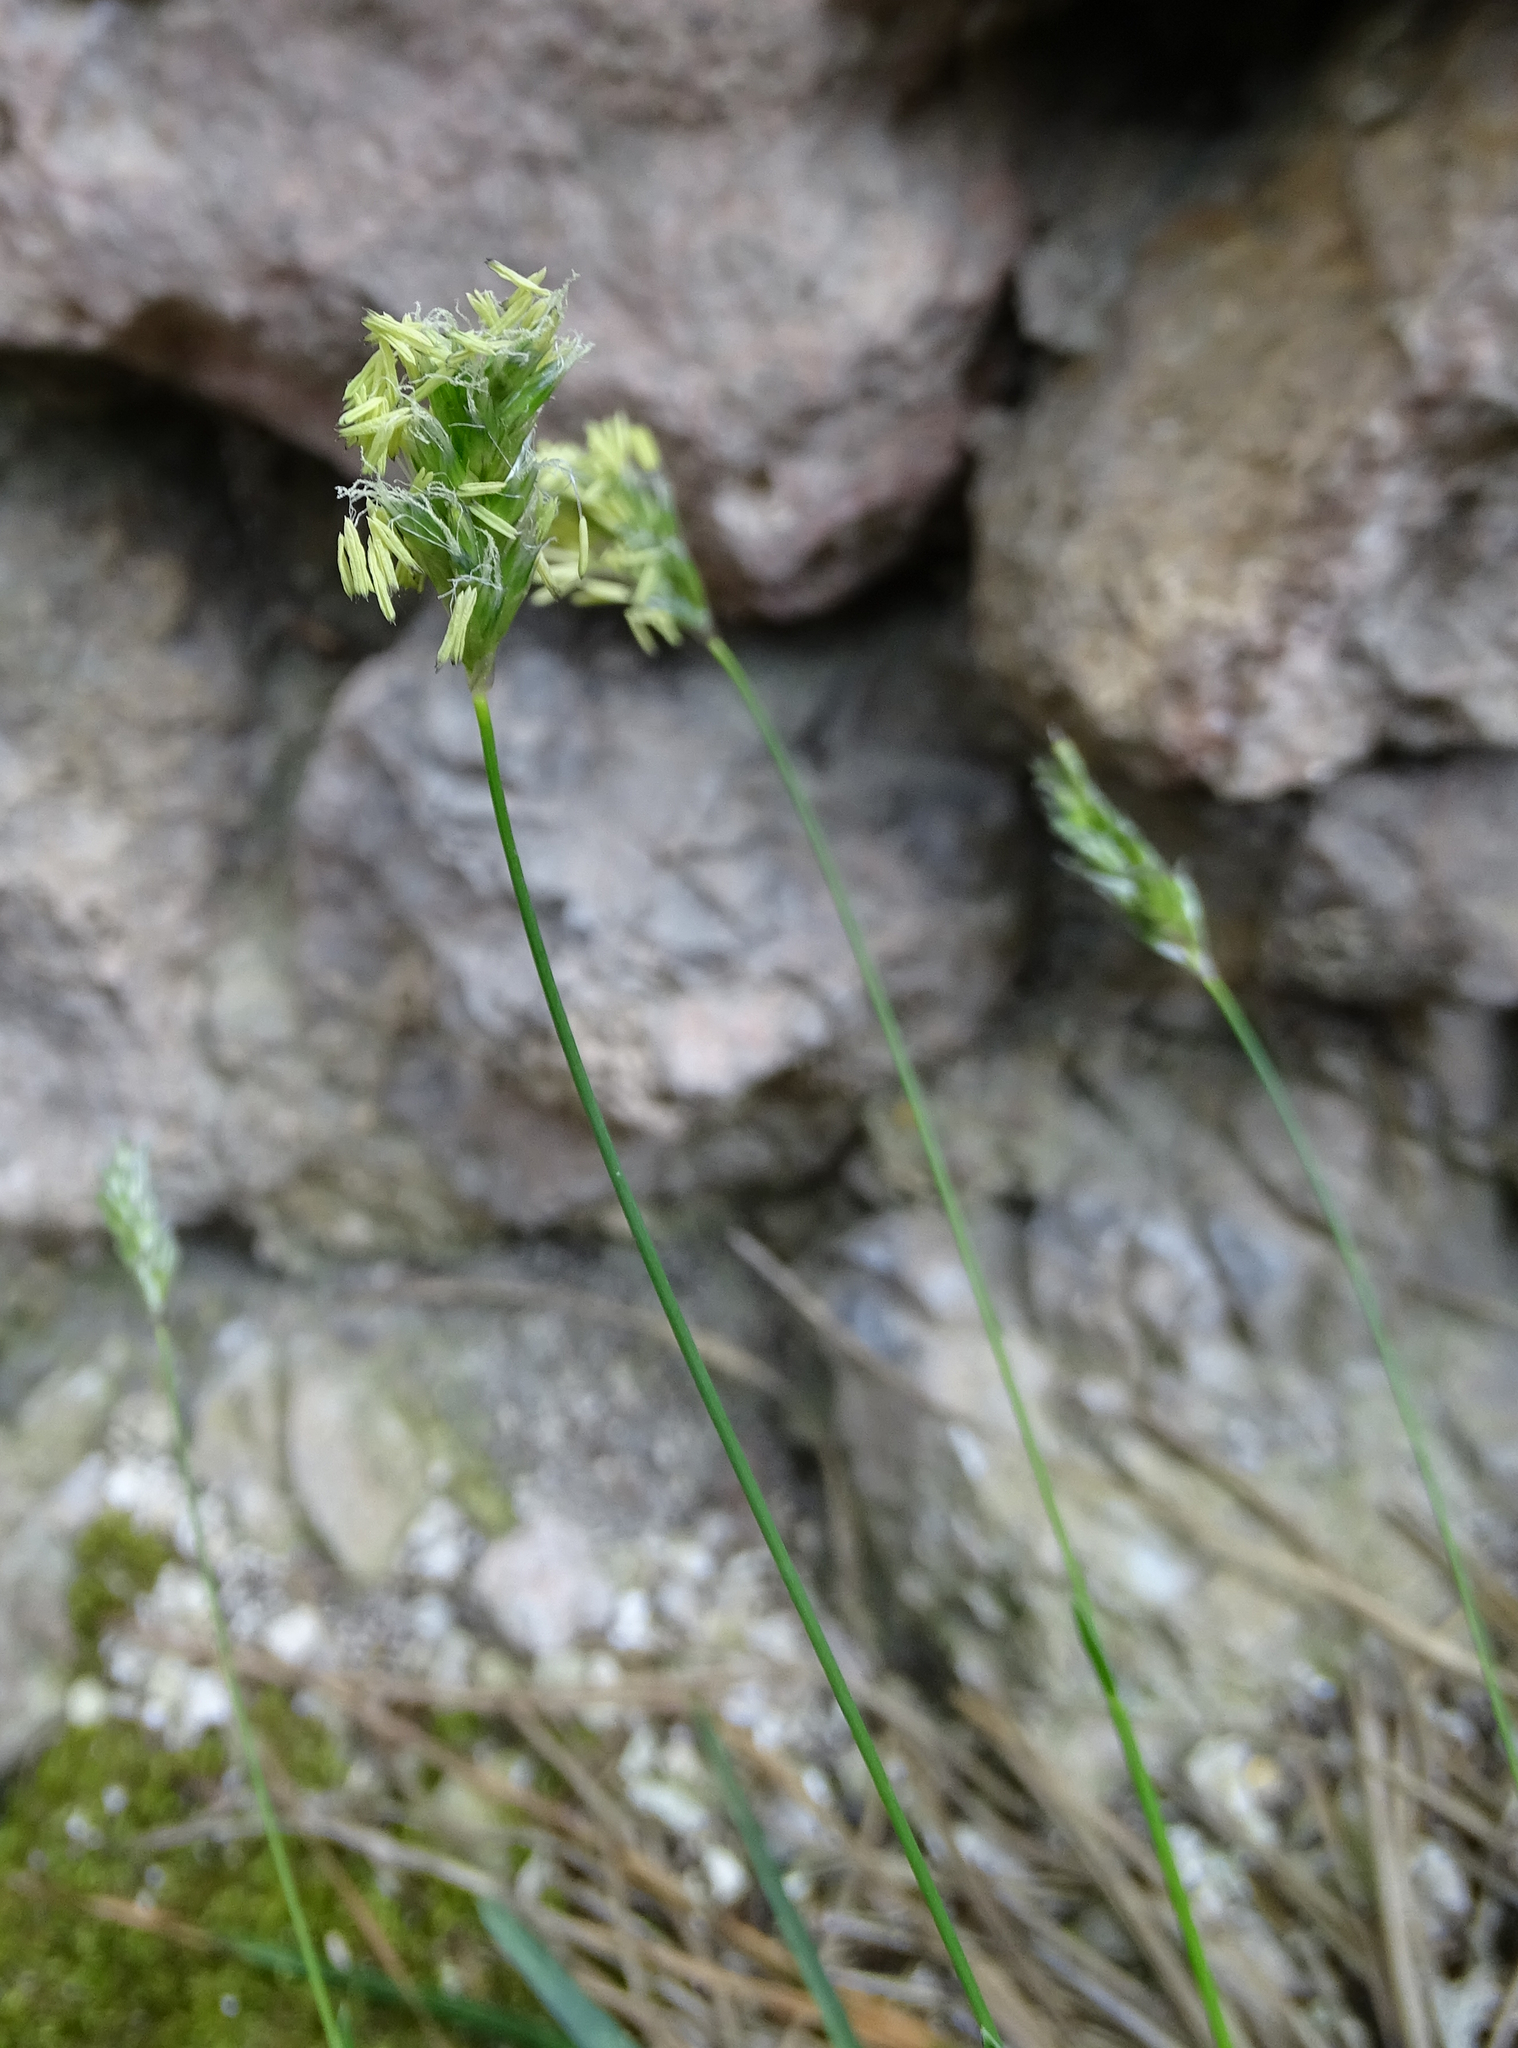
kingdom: Plantae
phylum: Tracheophyta
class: Liliopsida
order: Poales
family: Poaceae
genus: Sesleria
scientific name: Sesleria caerulea
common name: Blue moor-grass
